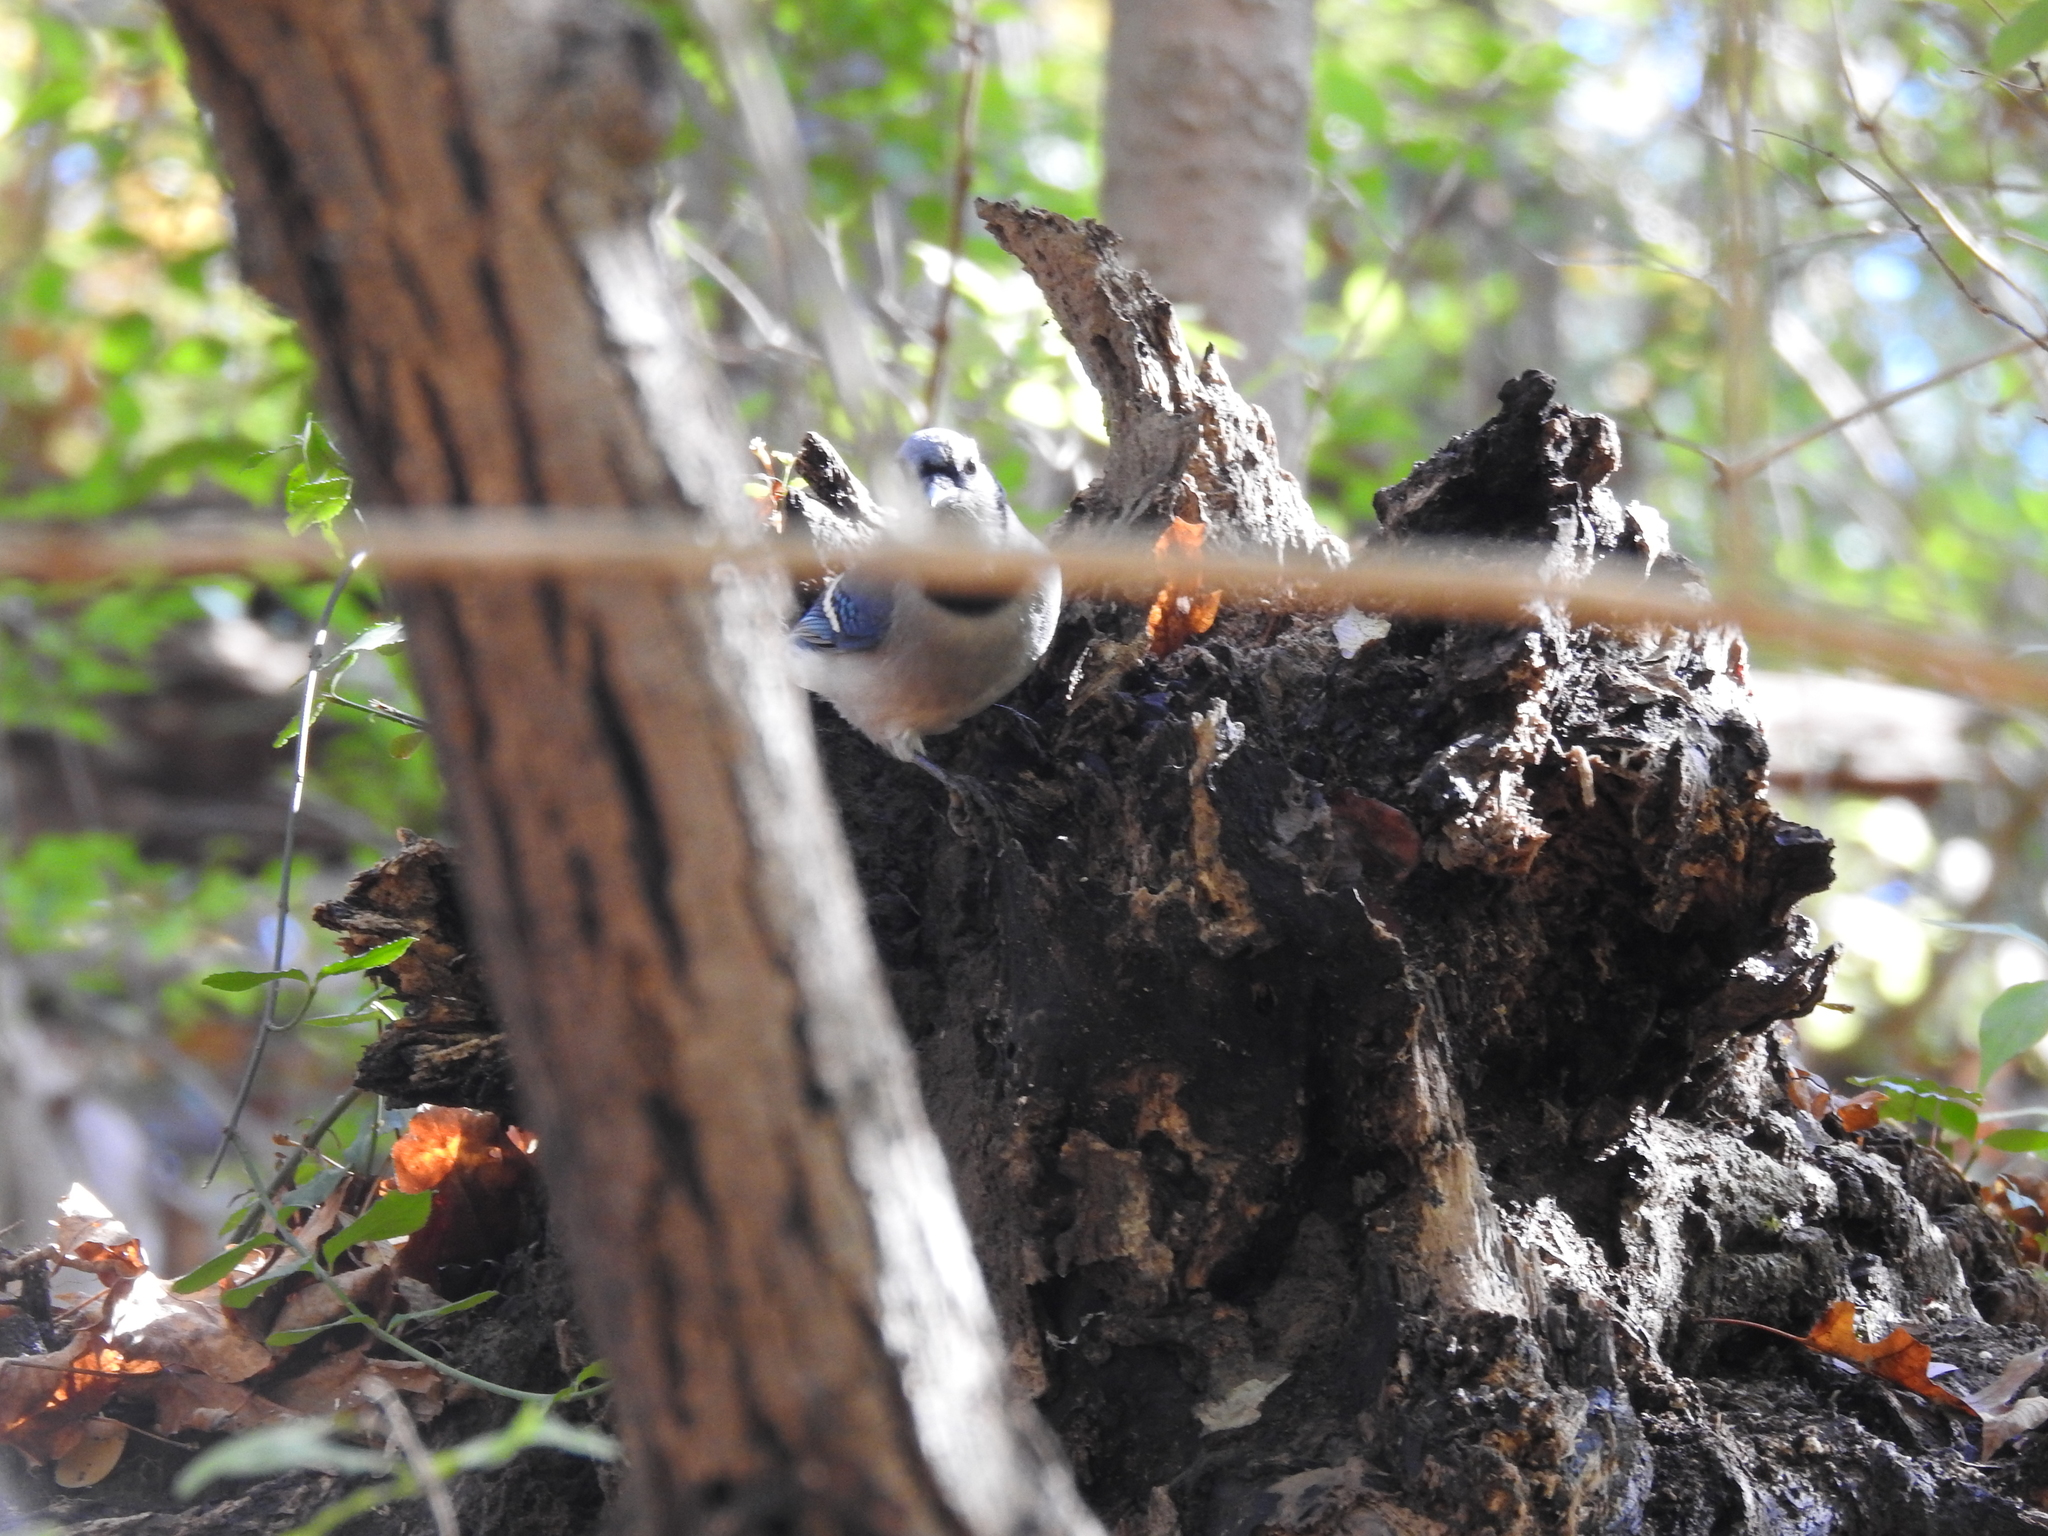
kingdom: Animalia
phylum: Chordata
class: Aves
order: Passeriformes
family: Corvidae
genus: Cyanocitta
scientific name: Cyanocitta cristata
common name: Blue jay
